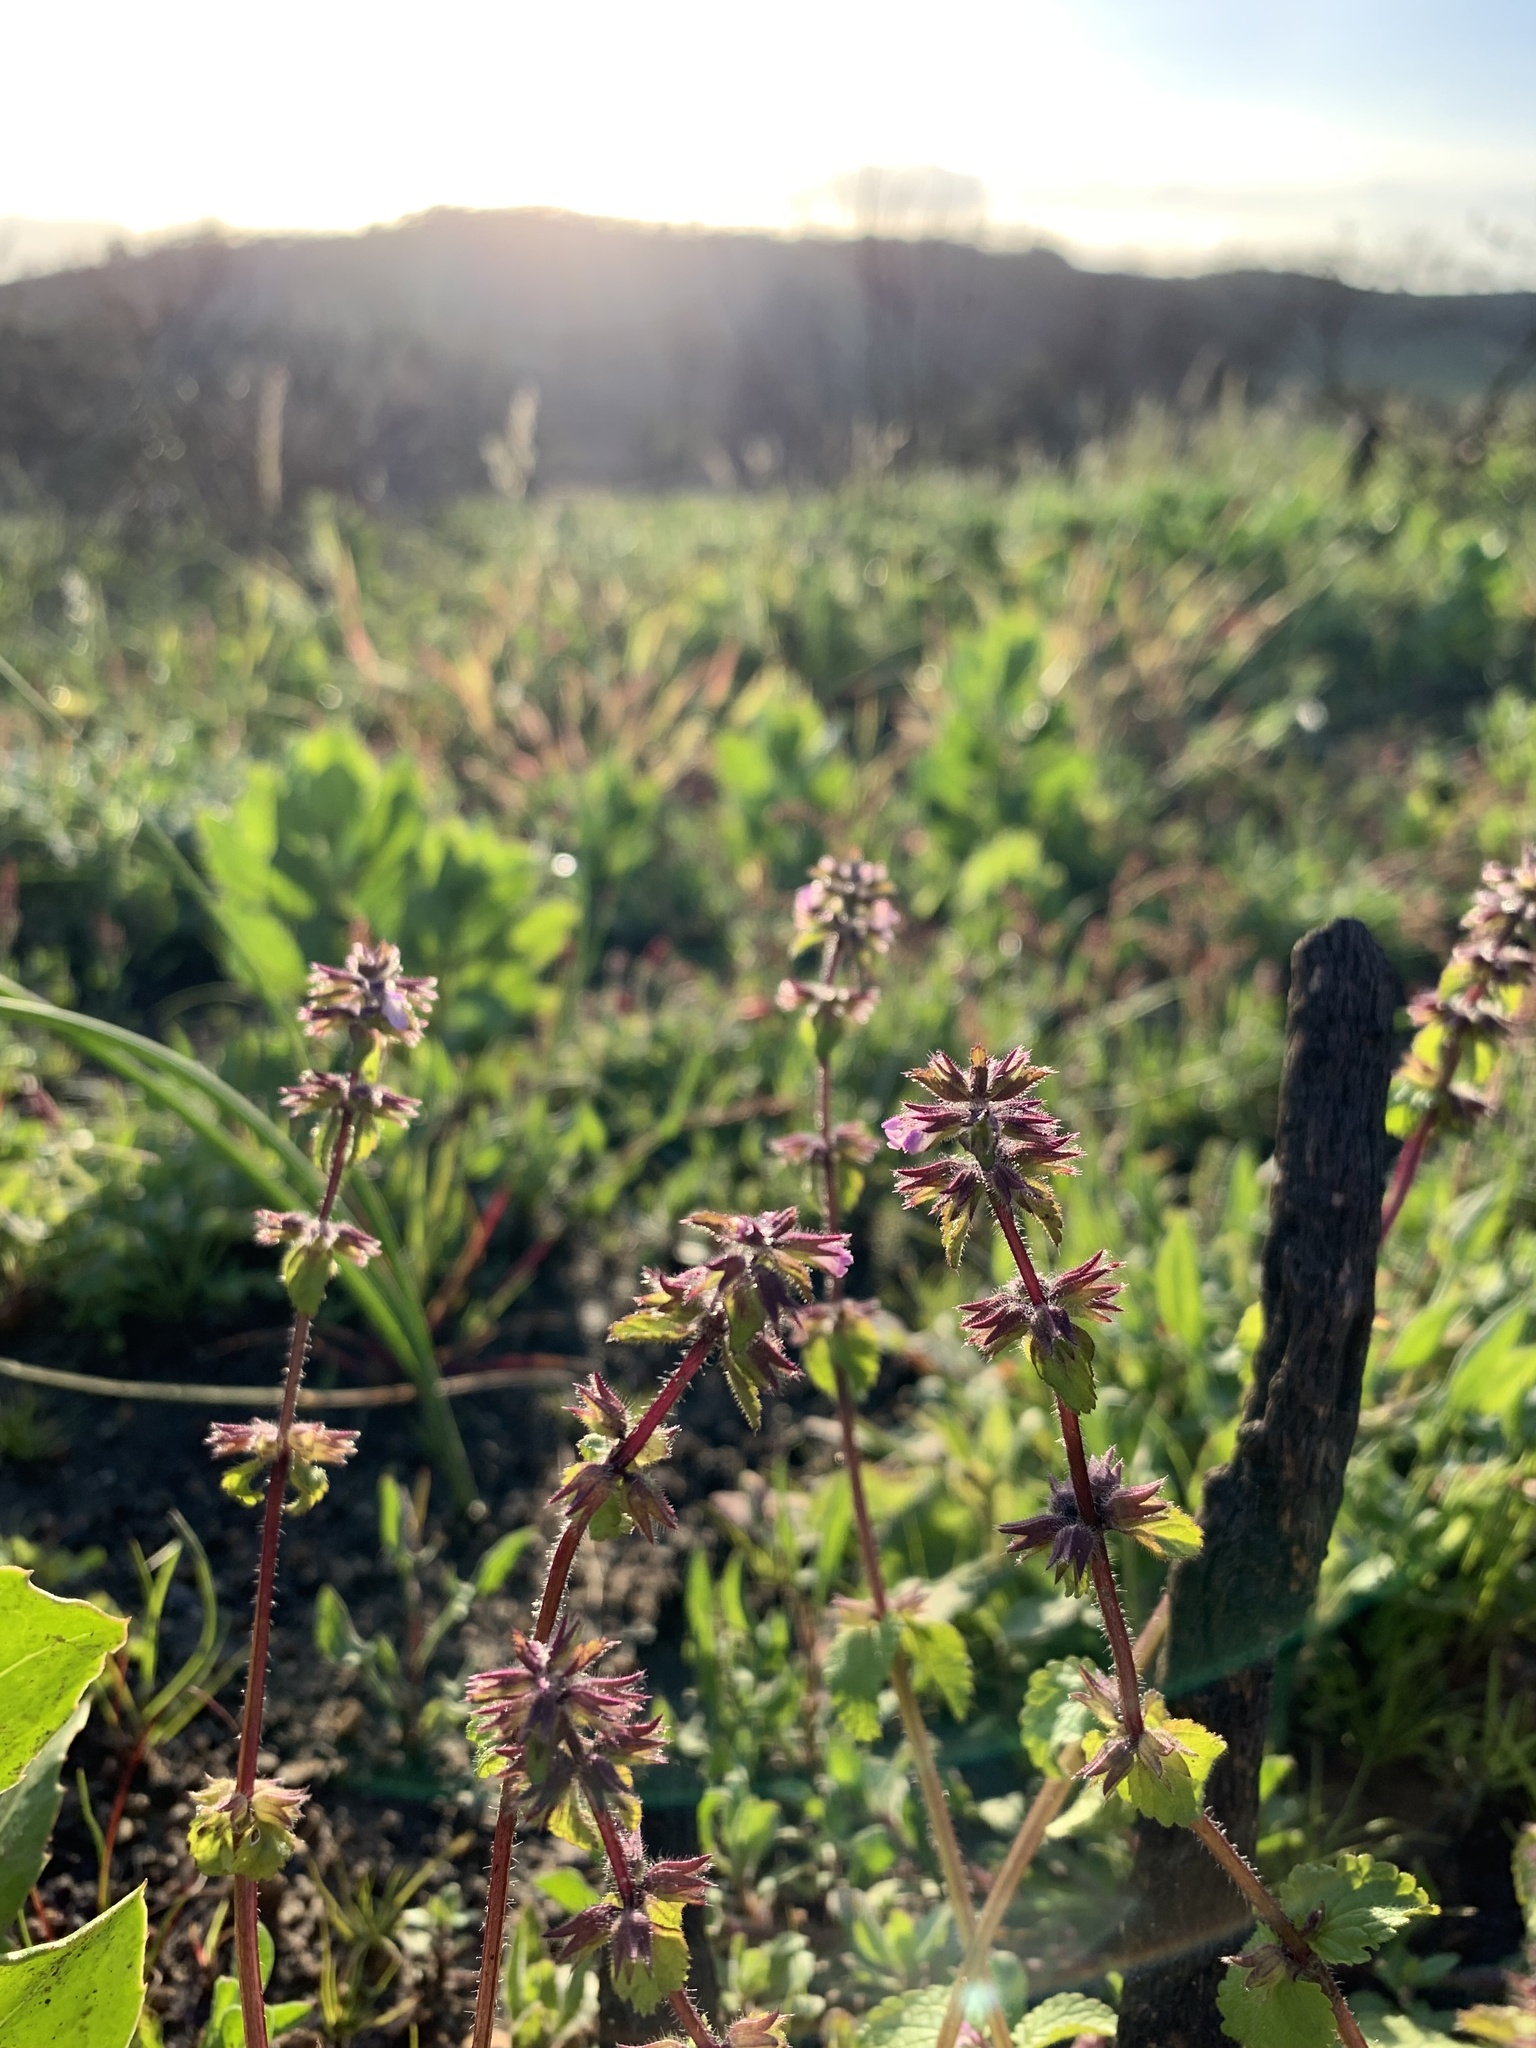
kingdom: Plantae
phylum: Tracheophyta
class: Magnoliopsida
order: Lamiales
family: Lamiaceae
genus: Stachys
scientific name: Stachys arvensis
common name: Field woundwort
